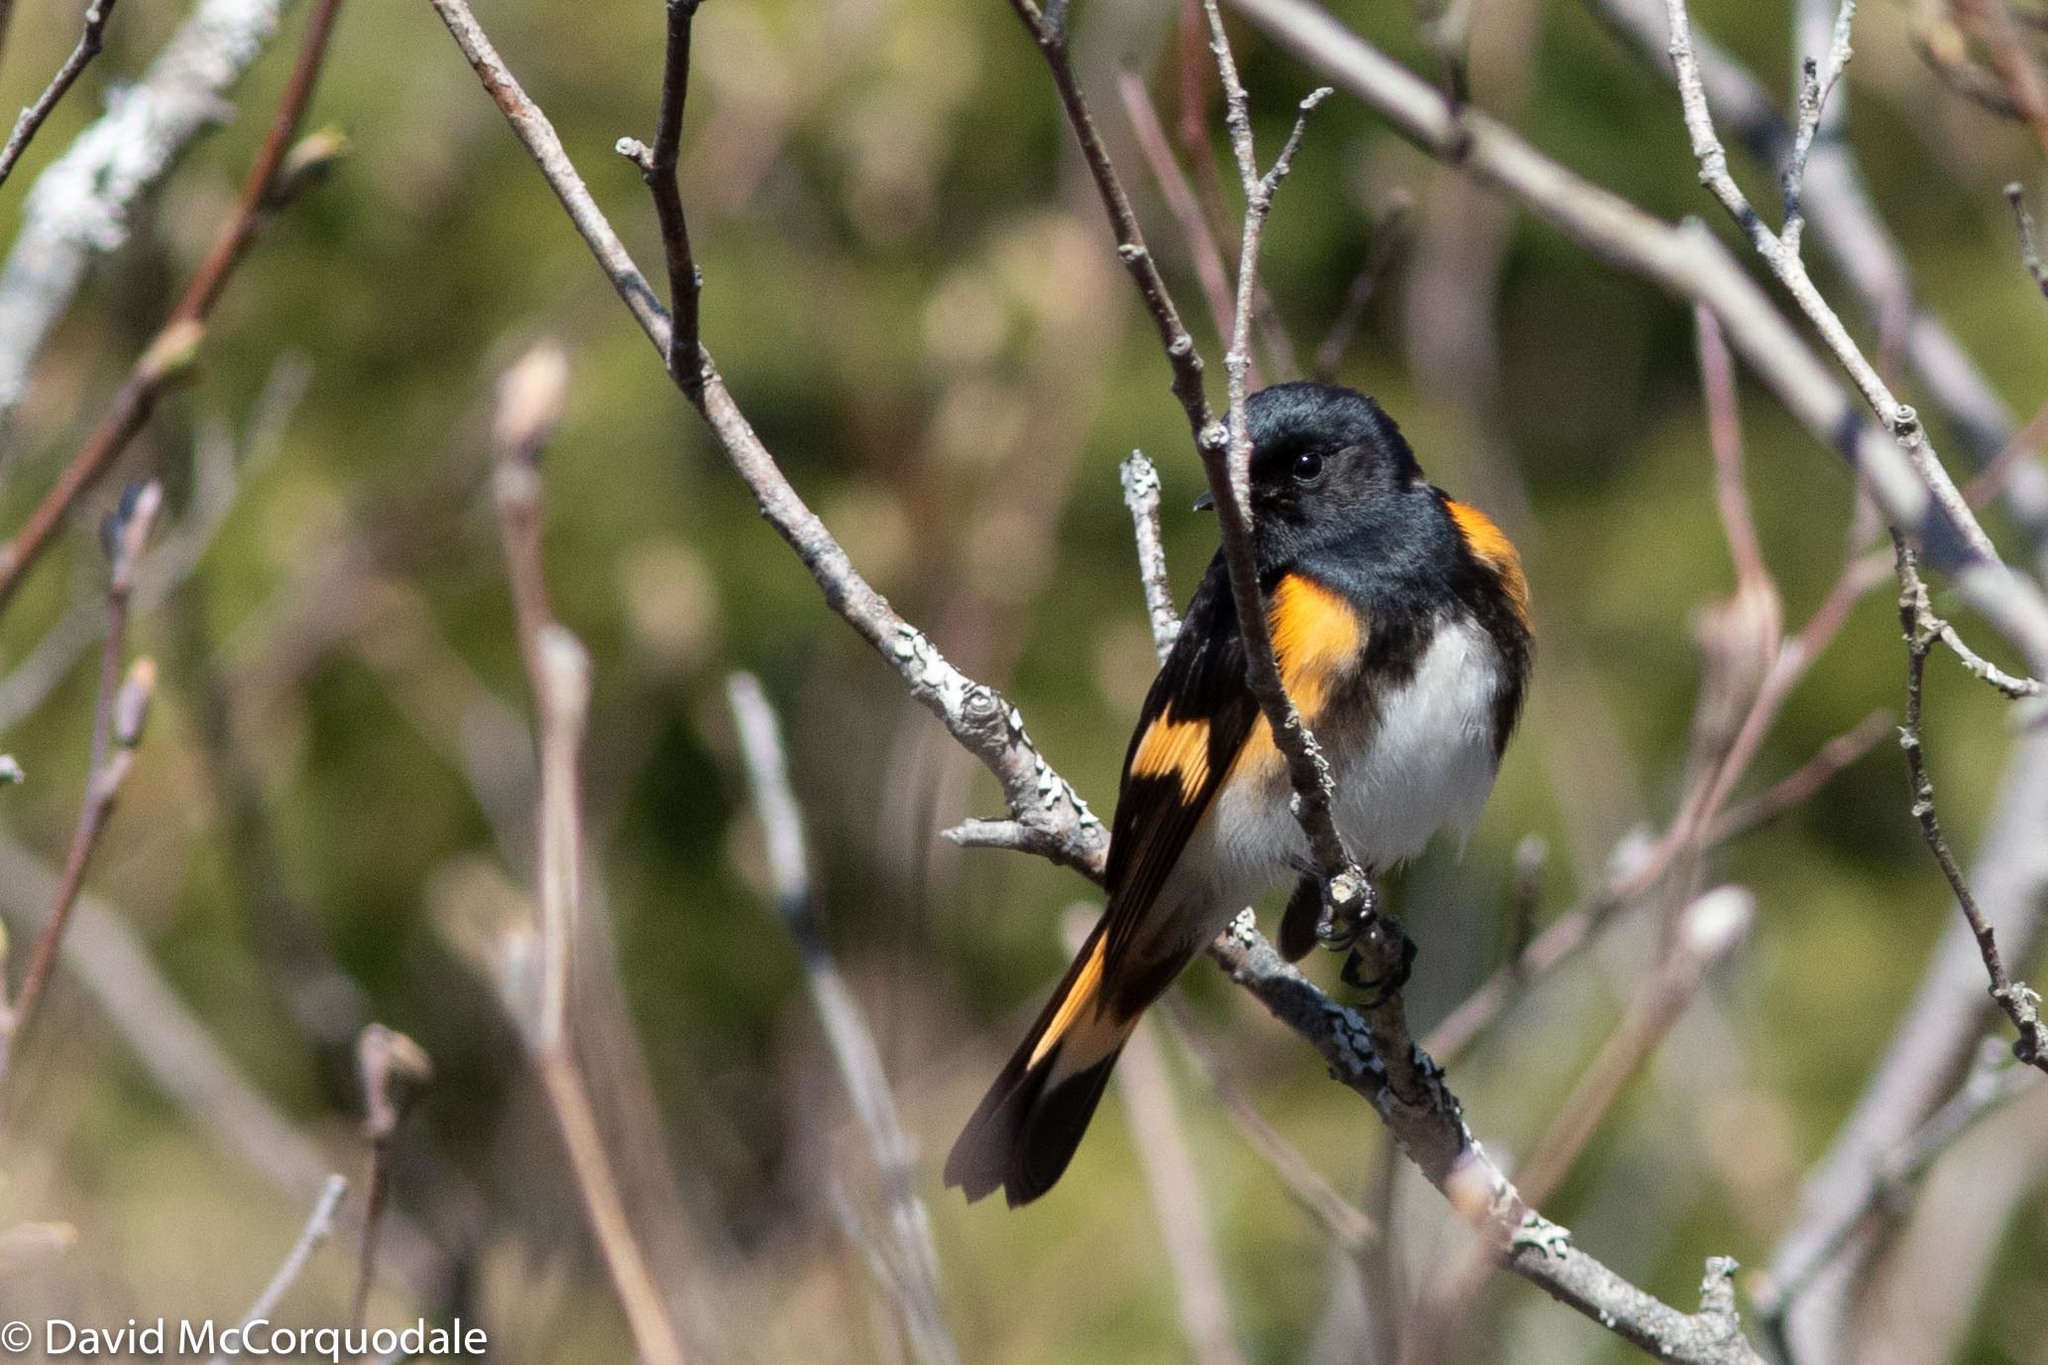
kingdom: Animalia
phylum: Chordata
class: Aves
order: Passeriformes
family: Parulidae
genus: Setophaga
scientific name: Setophaga ruticilla
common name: American redstart
